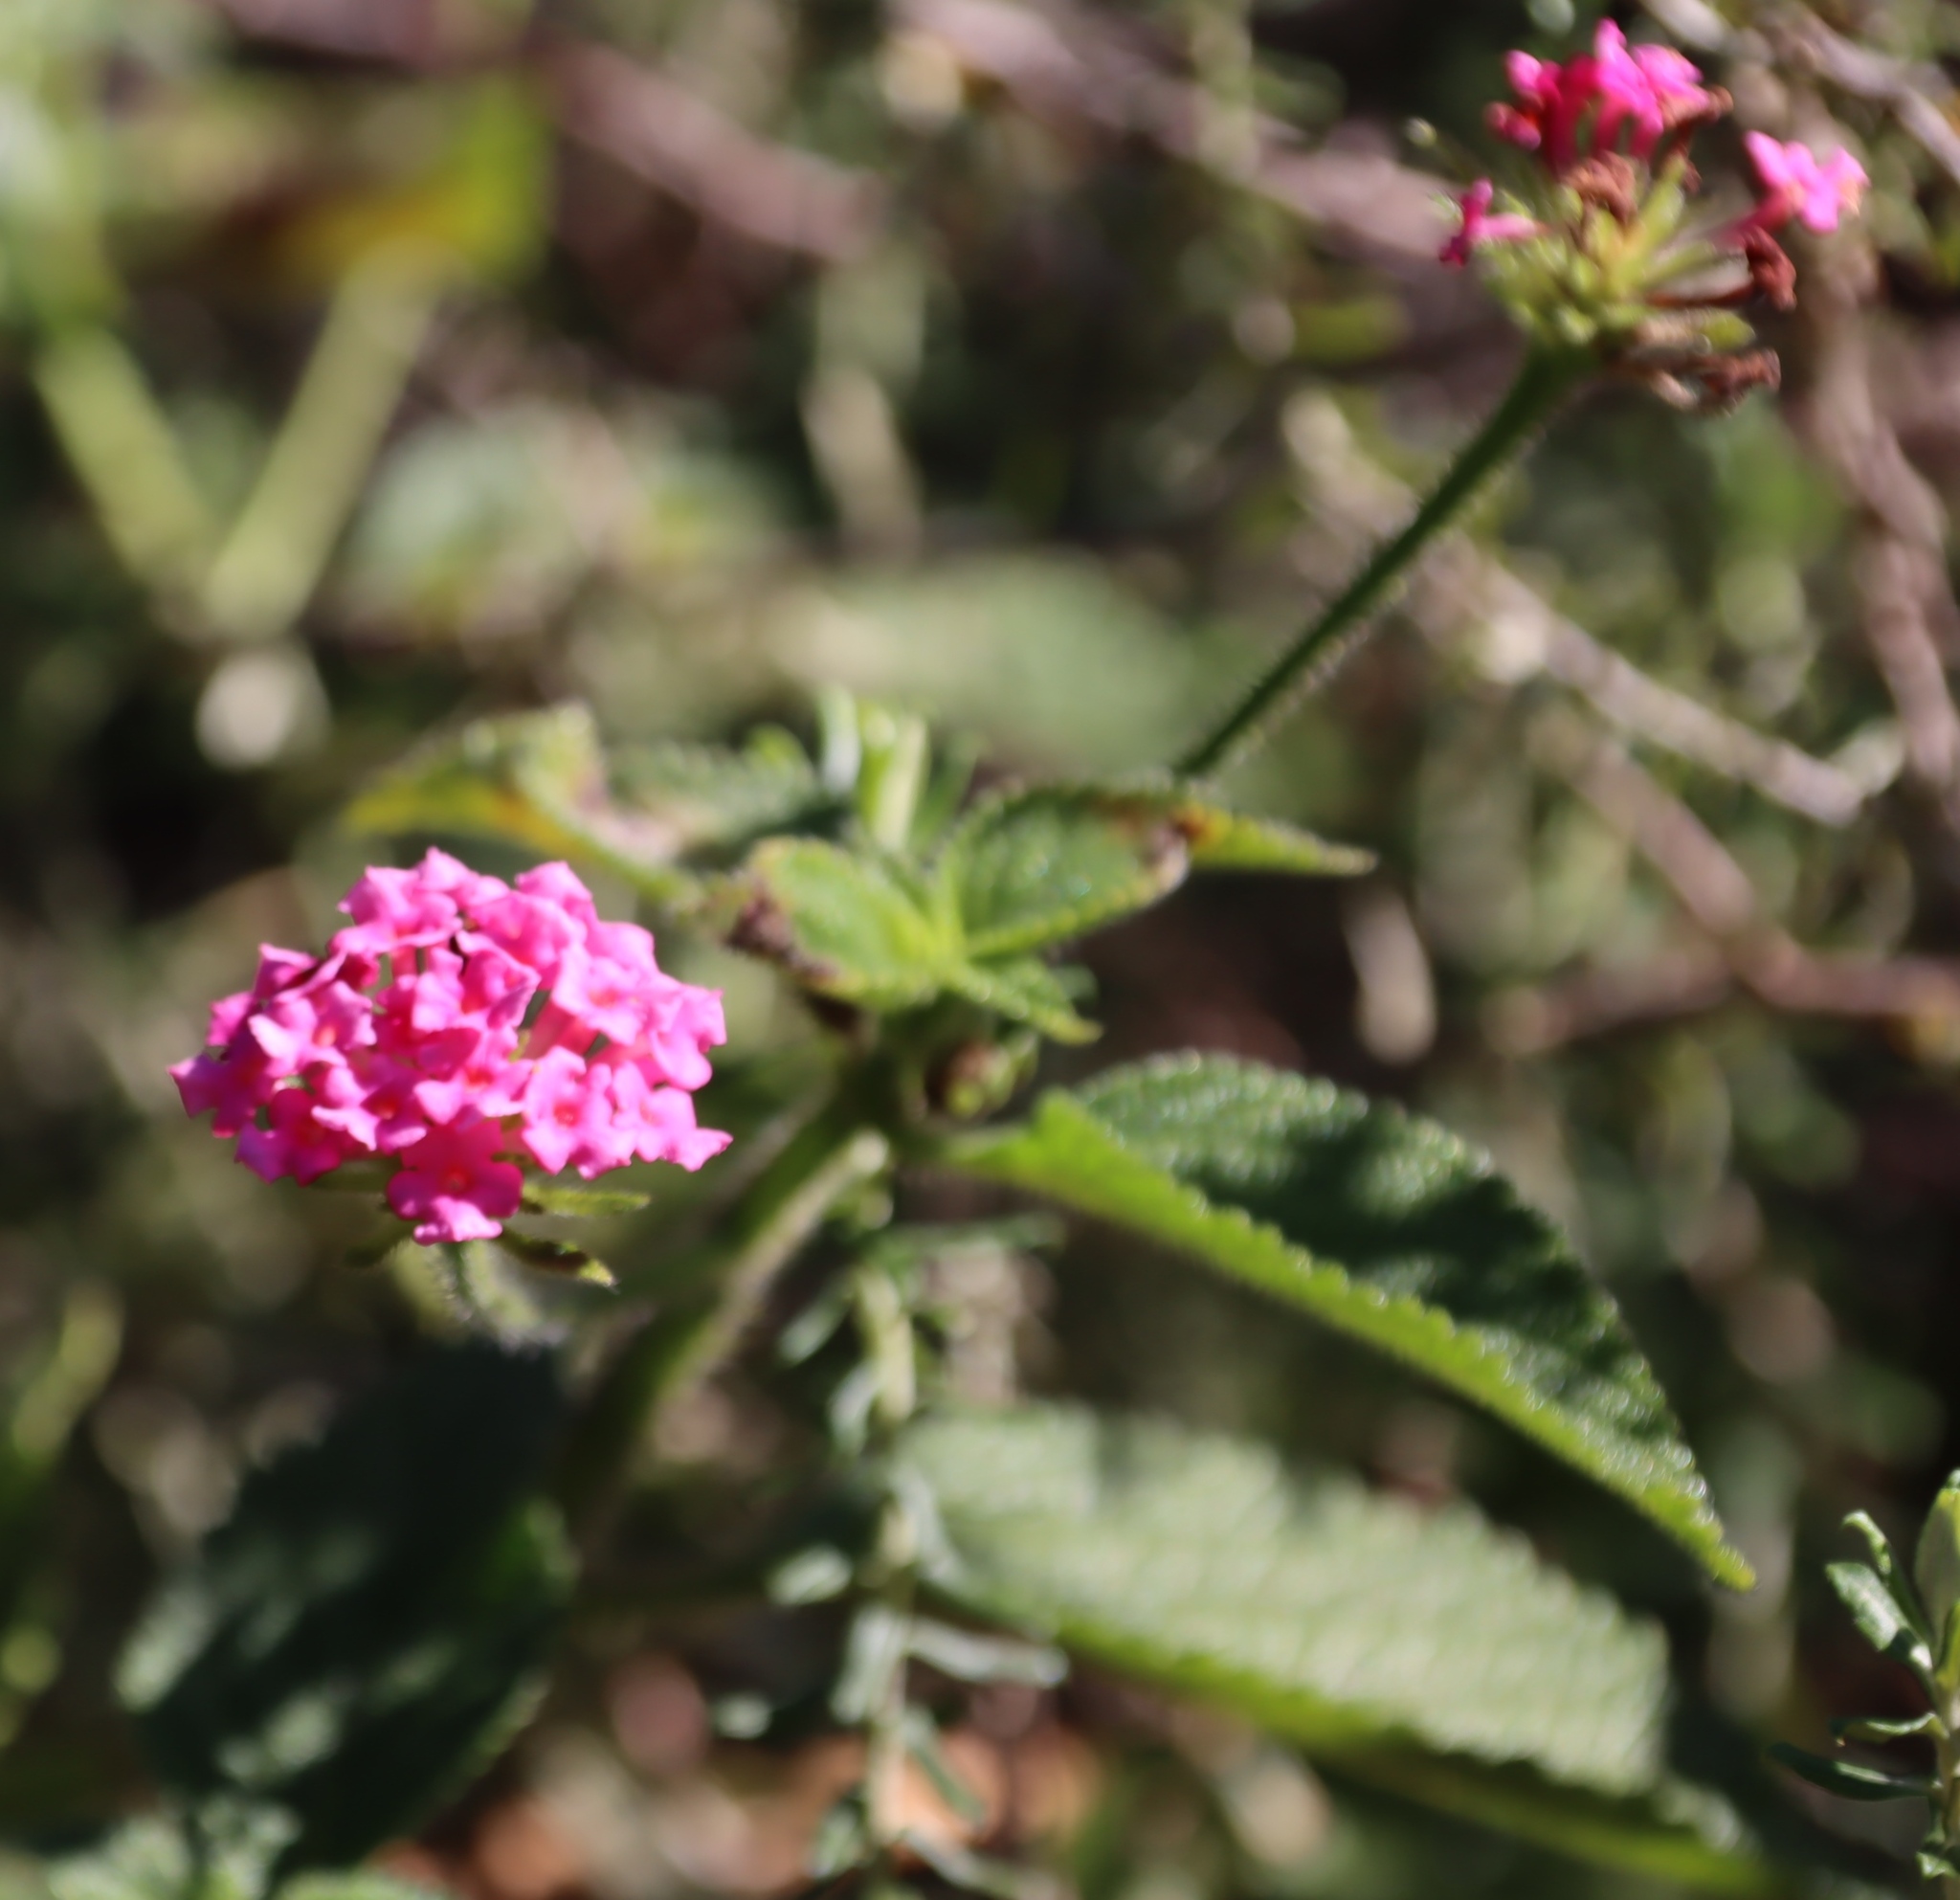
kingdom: Plantae
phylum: Tracheophyta
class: Magnoliopsida
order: Lamiales
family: Verbenaceae
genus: Lantana
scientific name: Lantana camara
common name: Lantana
